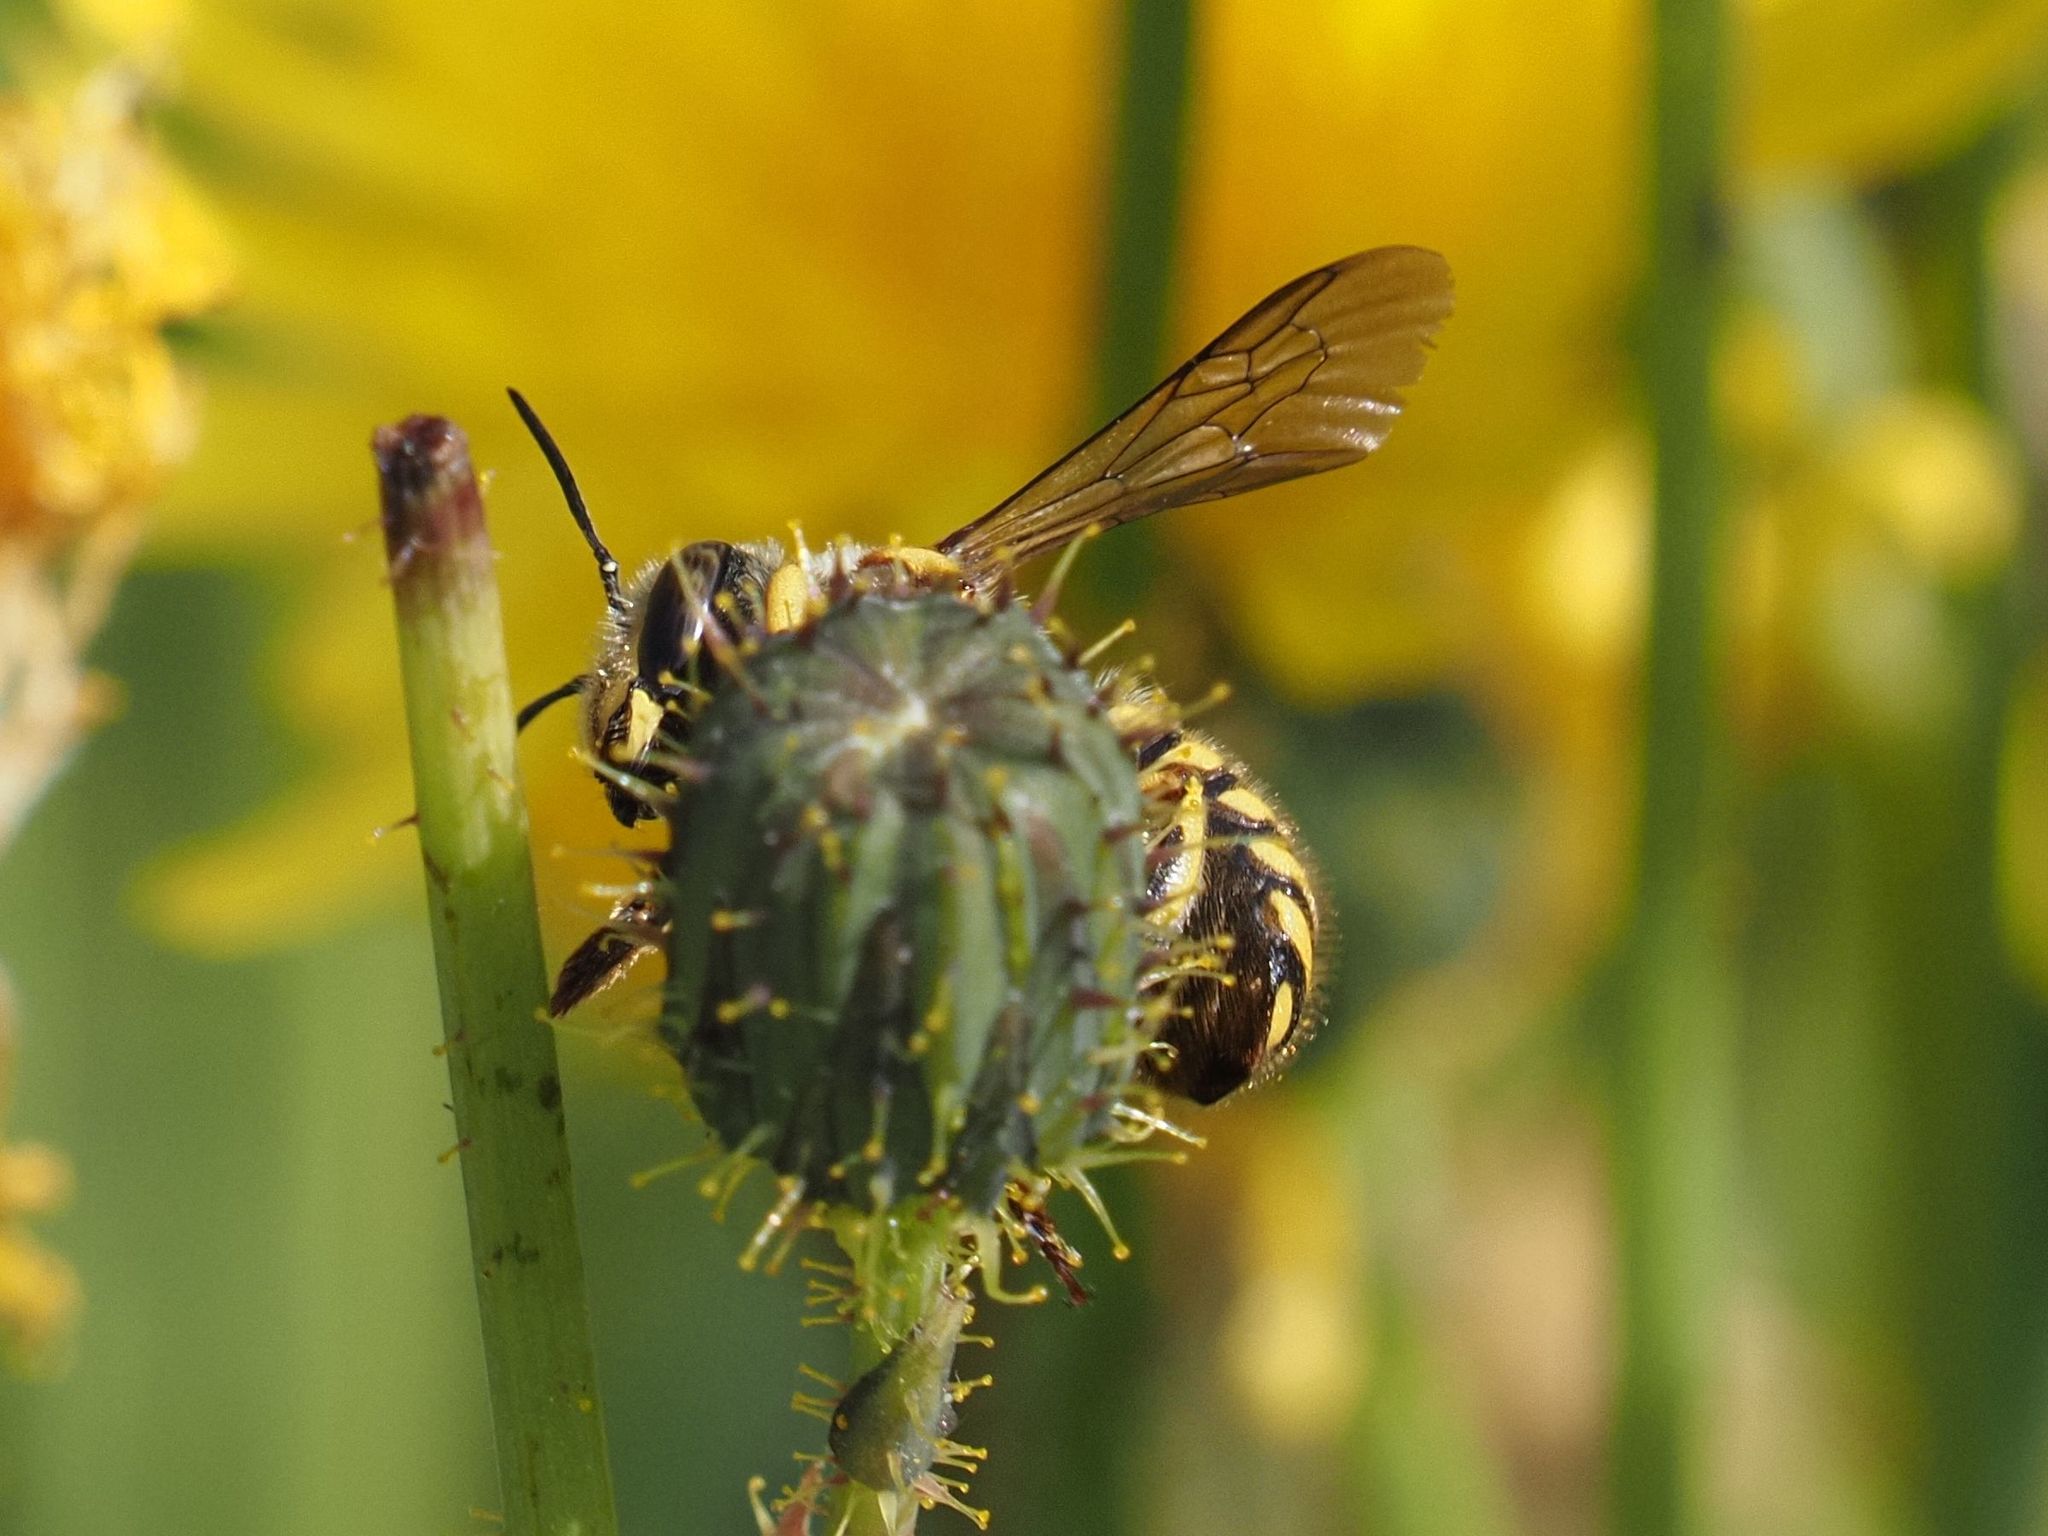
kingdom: Animalia
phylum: Arthropoda
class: Insecta
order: Hymenoptera
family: Megachilidae
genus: Anthidium
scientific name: Anthidium manicatum
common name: Wool carder bee
